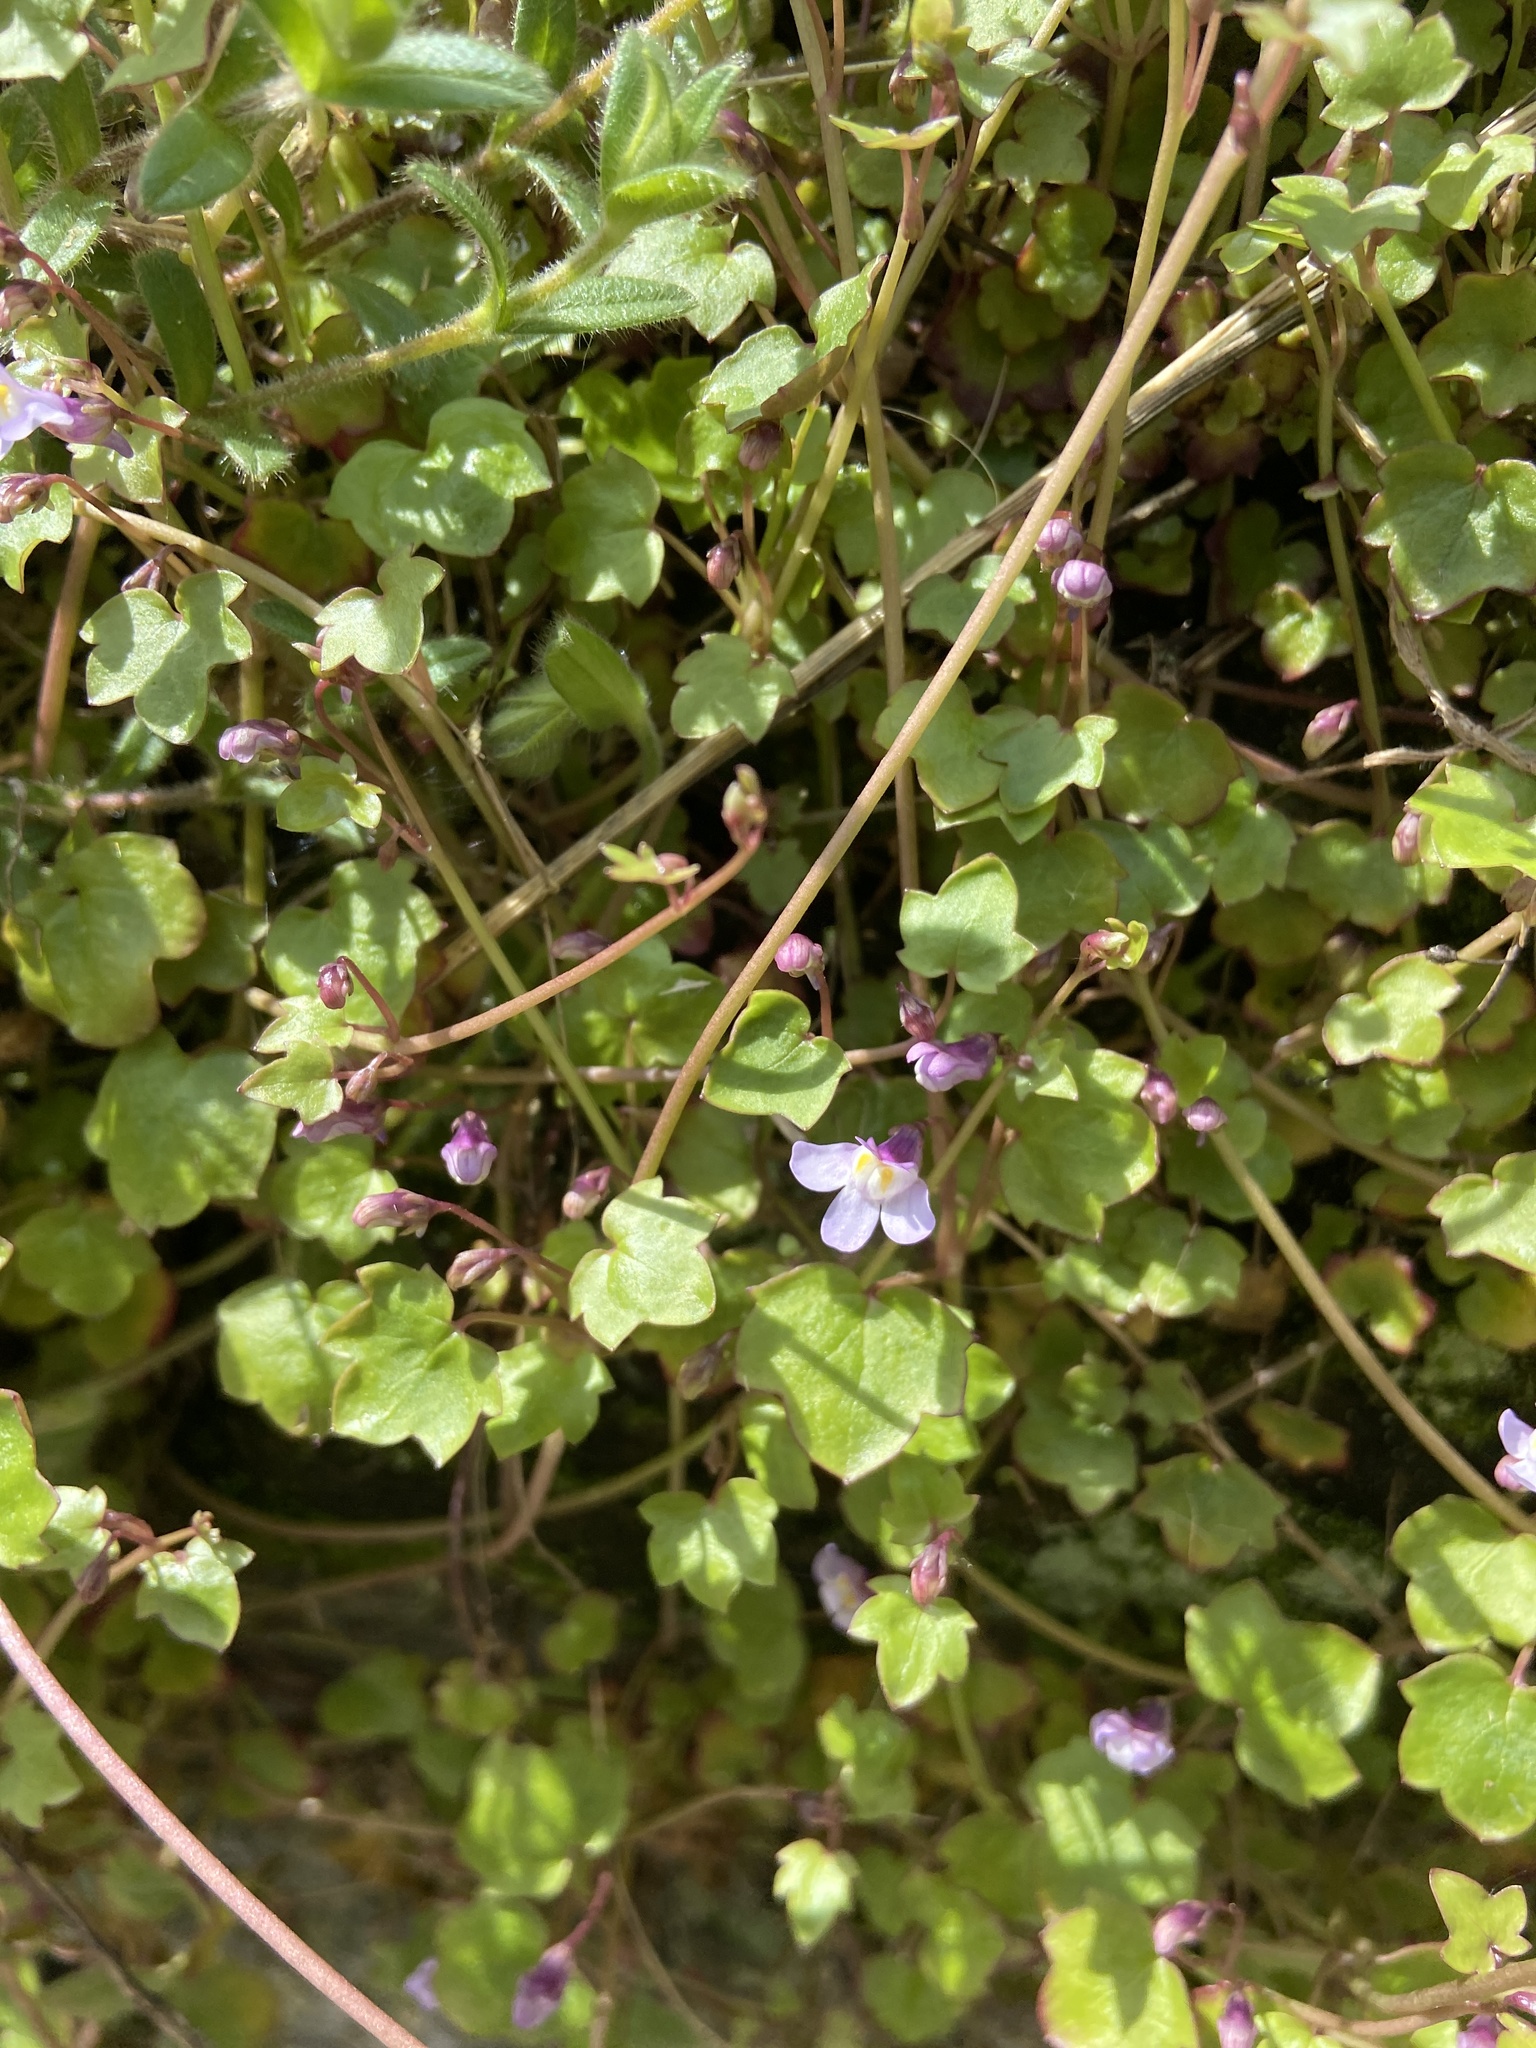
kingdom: Plantae
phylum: Tracheophyta
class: Magnoliopsida
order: Lamiales
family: Plantaginaceae
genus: Cymbalaria
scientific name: Cymbalaria muralis
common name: Ivy-leaved toadflax
